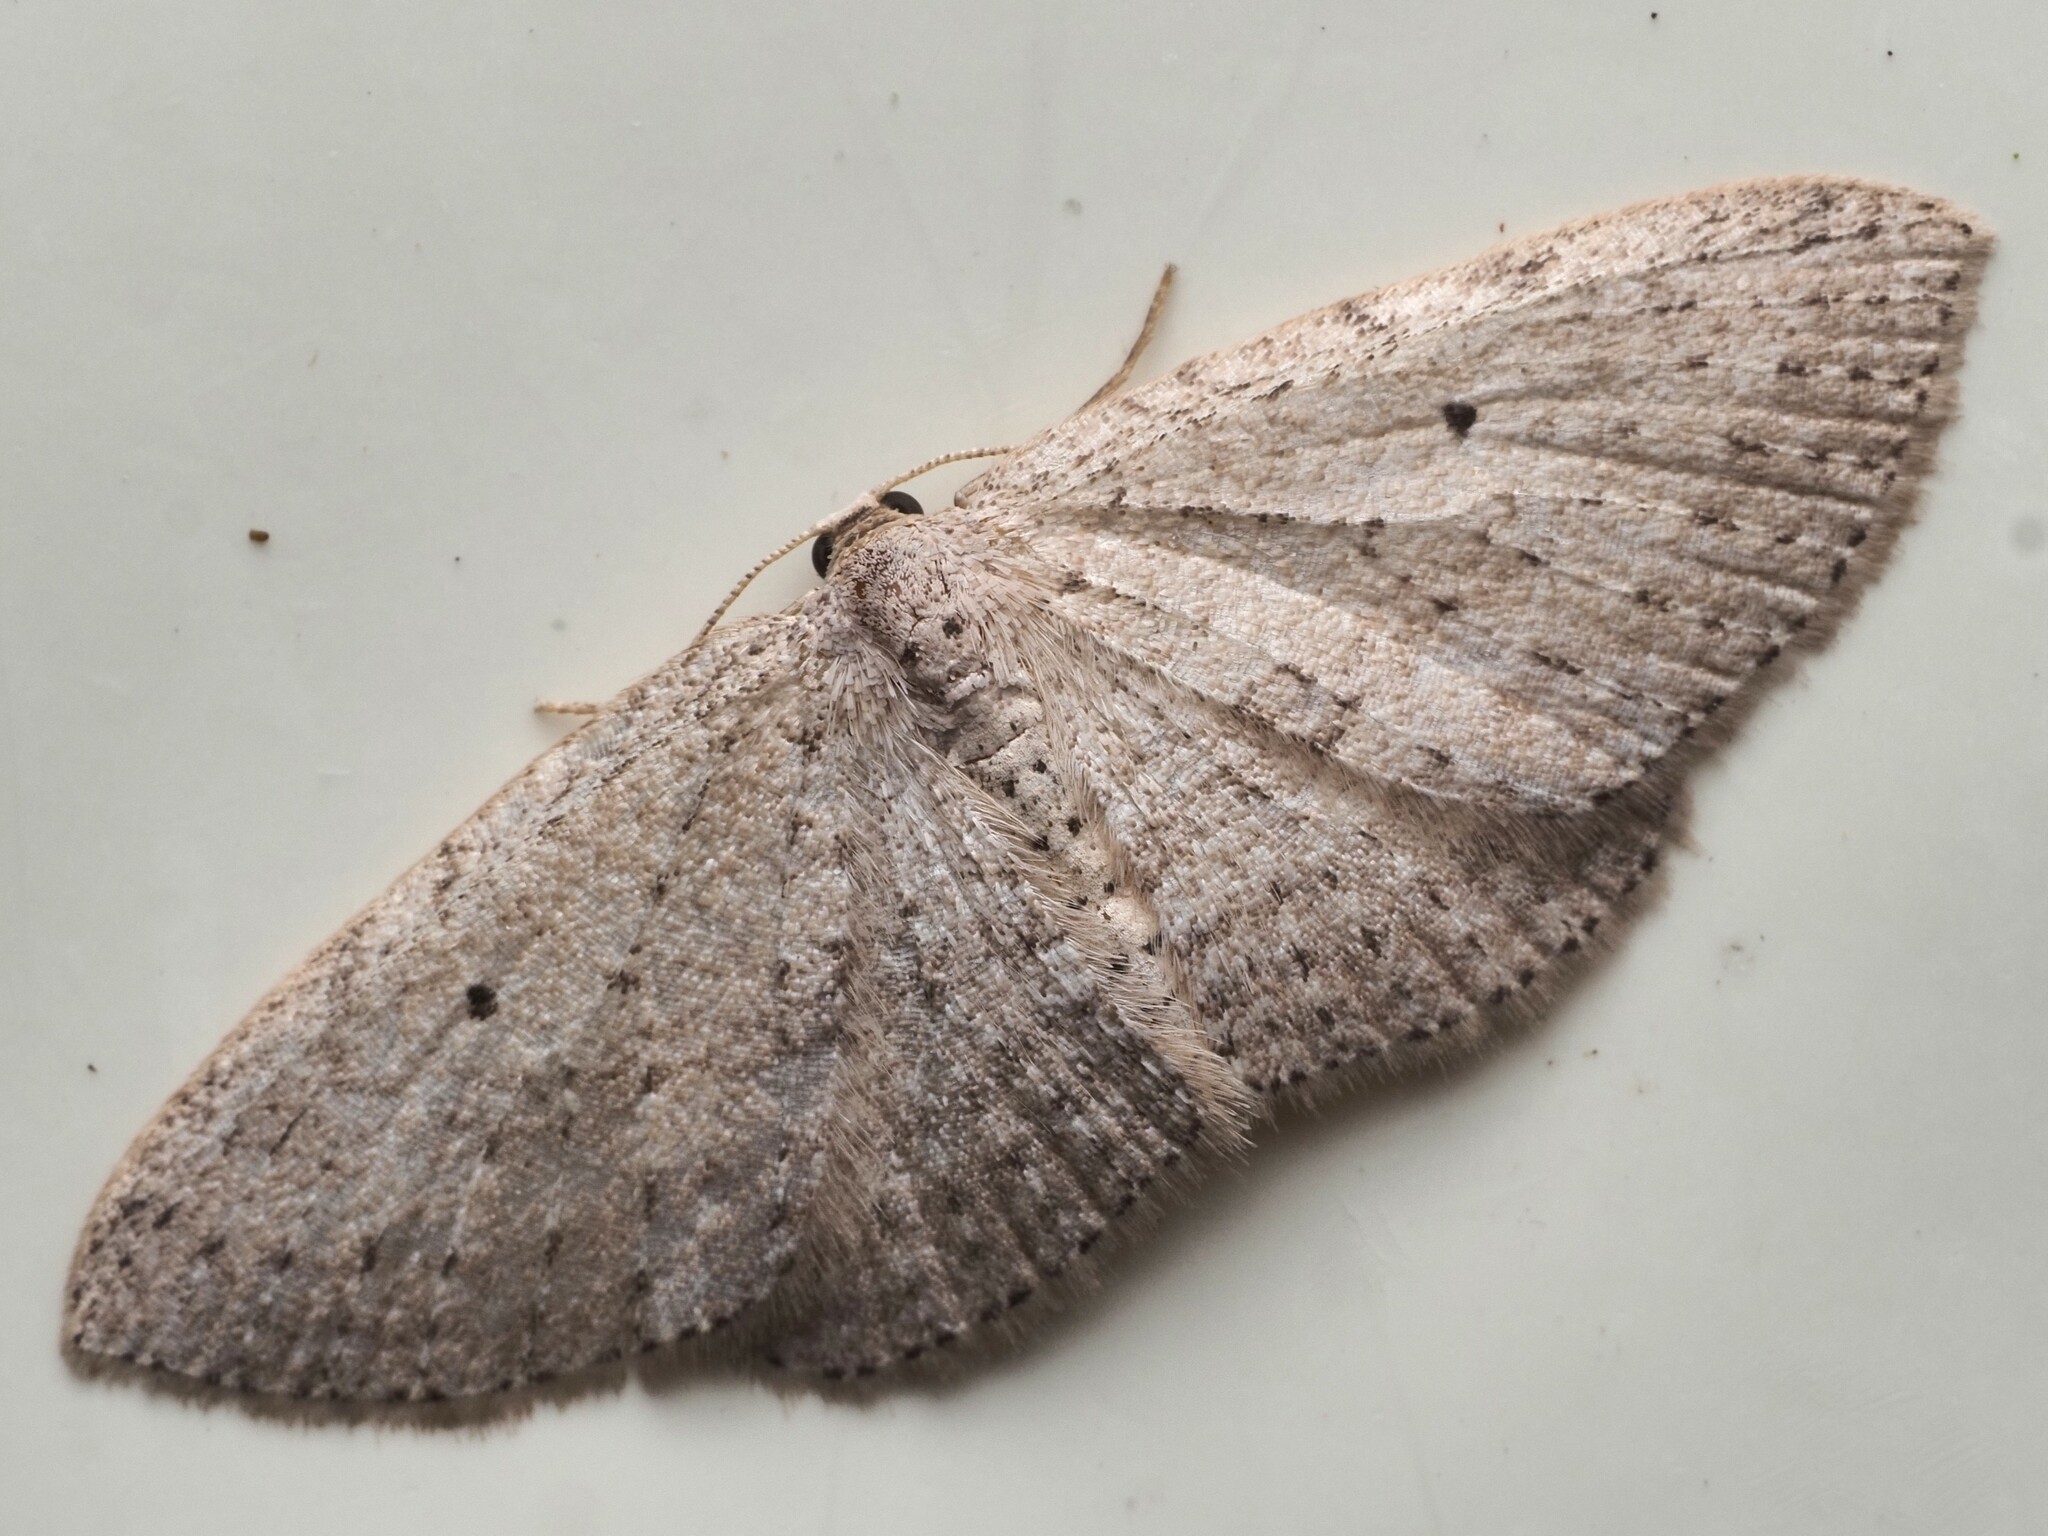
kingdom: Animalia
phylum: Arthropoda
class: Insecta
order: Lepidoptera
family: Geometridae
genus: Poecilasthena
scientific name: Poecilasthena schistaria
